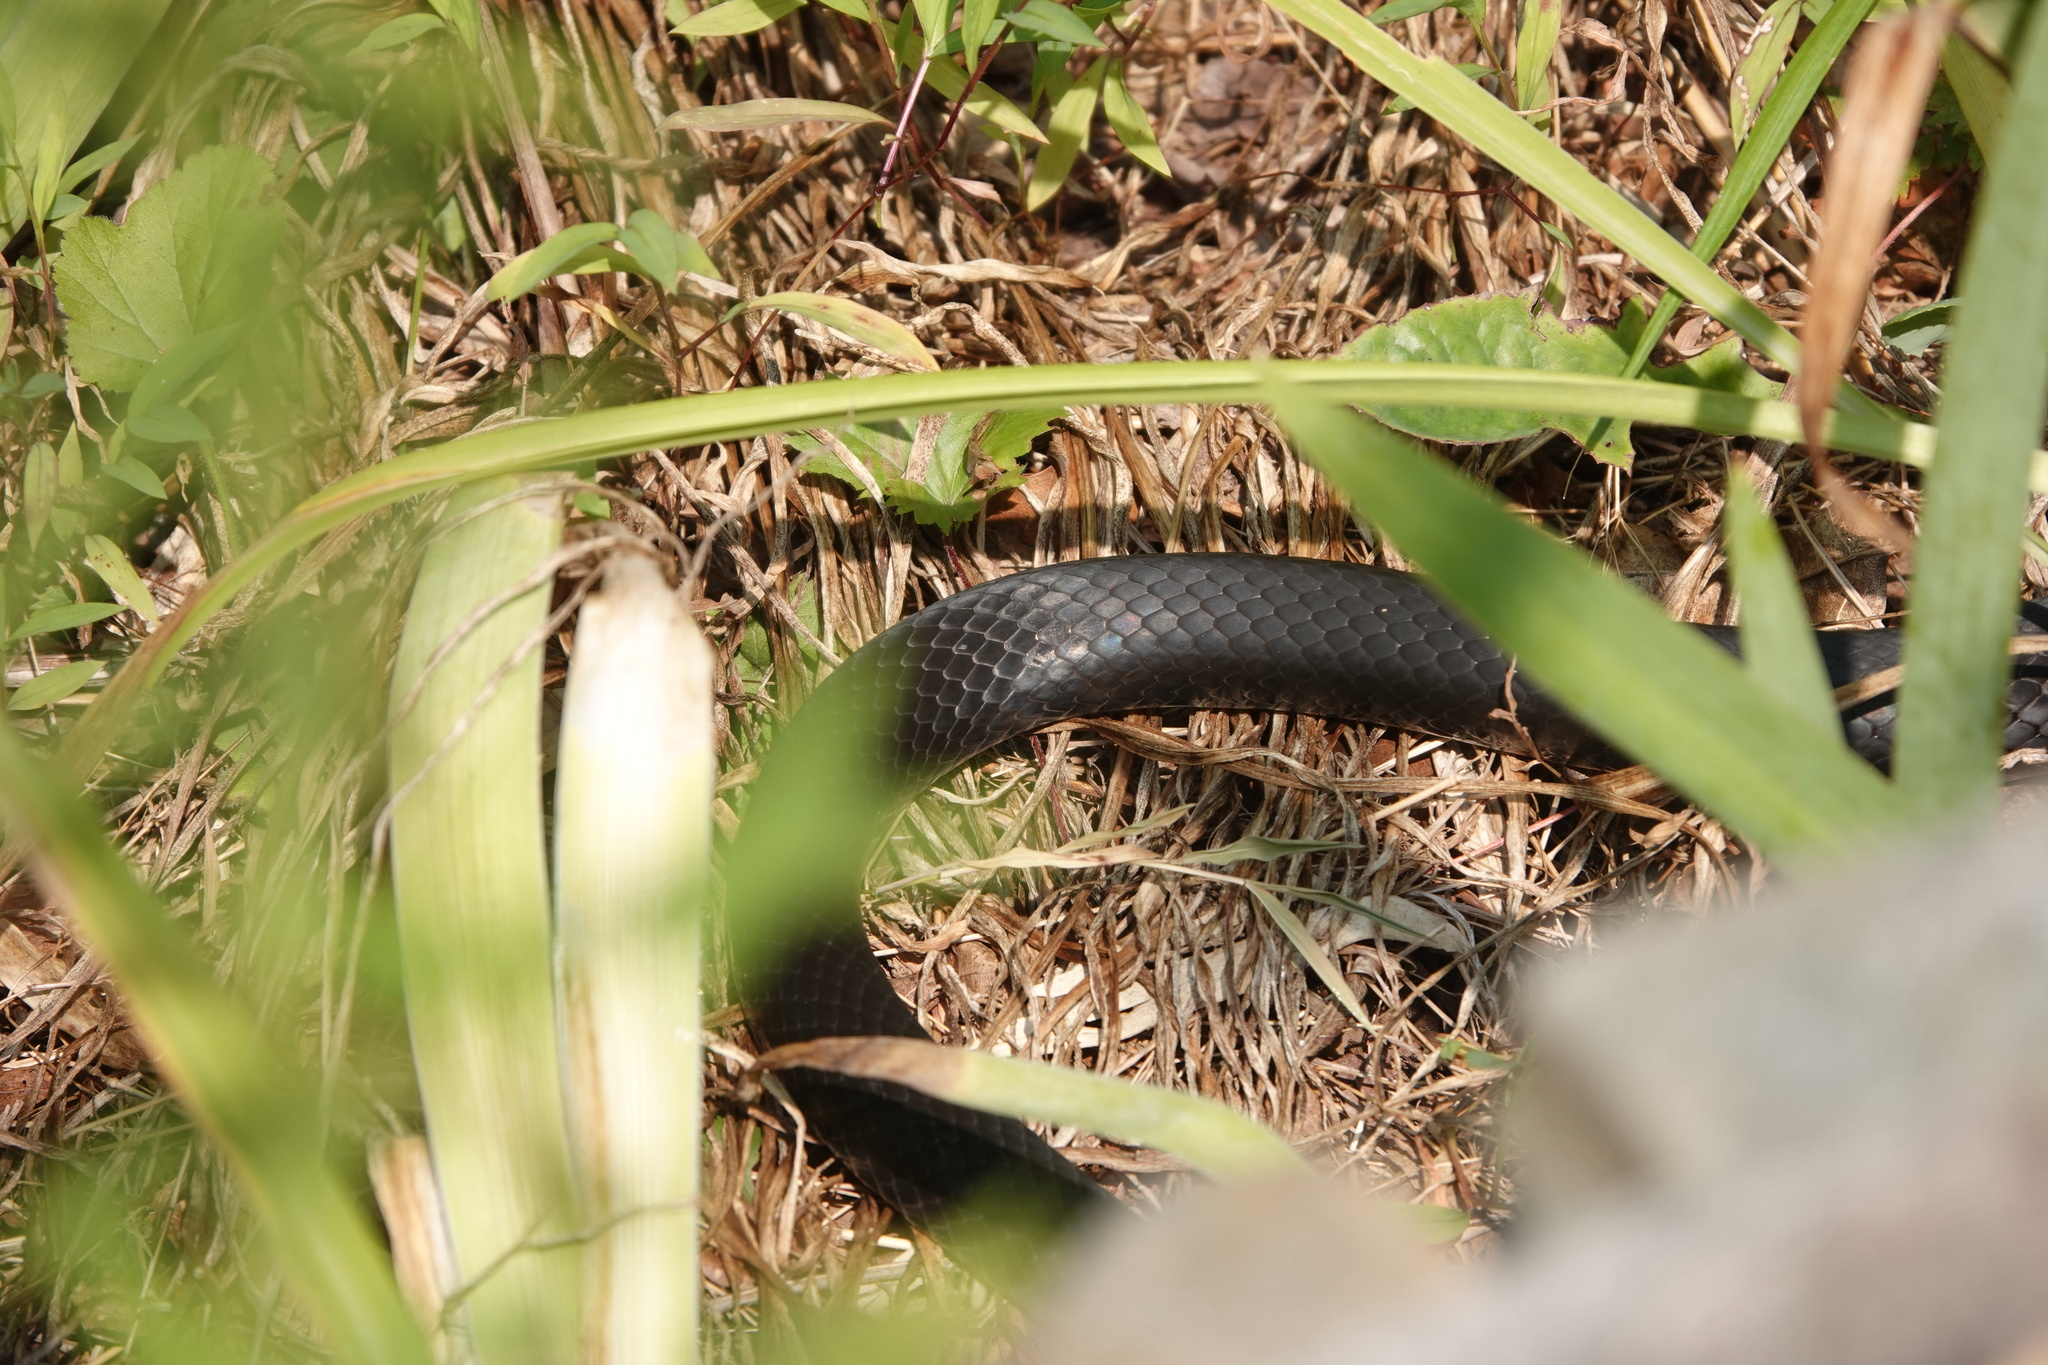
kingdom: Animalia
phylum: Chordata
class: Squamata
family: Colubridae
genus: Coluber
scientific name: Coluber constrictor
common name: Eastern racer
